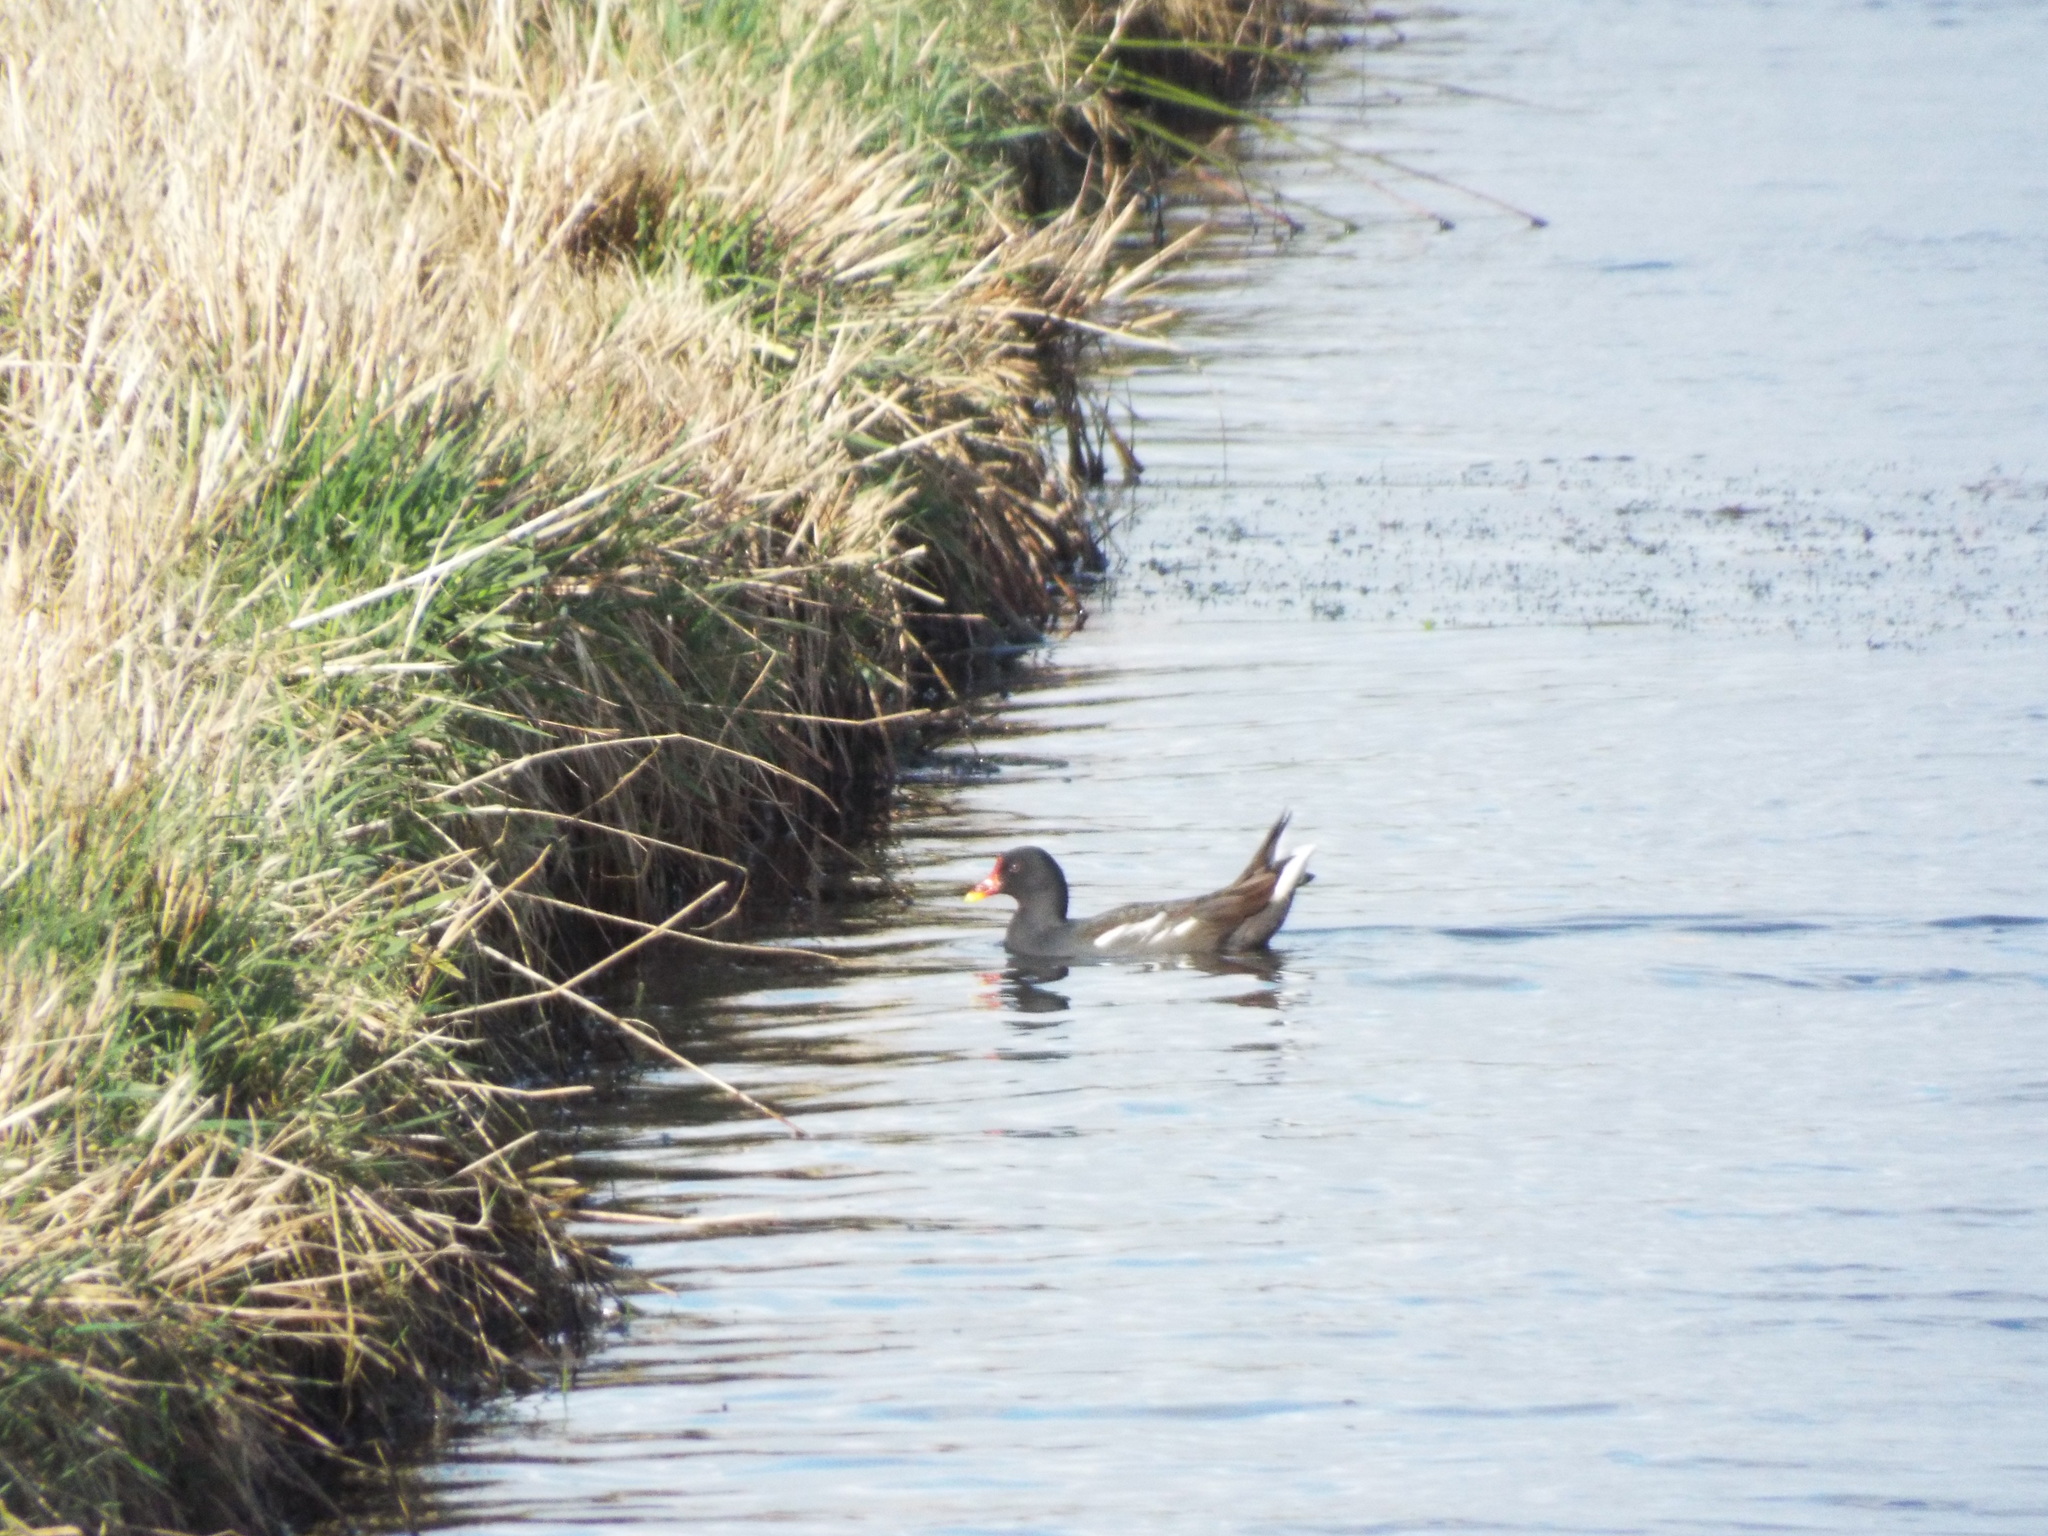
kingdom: Animalia
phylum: Chordata
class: Aves
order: Gruiformes
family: Rallidae
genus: Gallinula
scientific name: Gallinula chloropus
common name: Common moorhen
